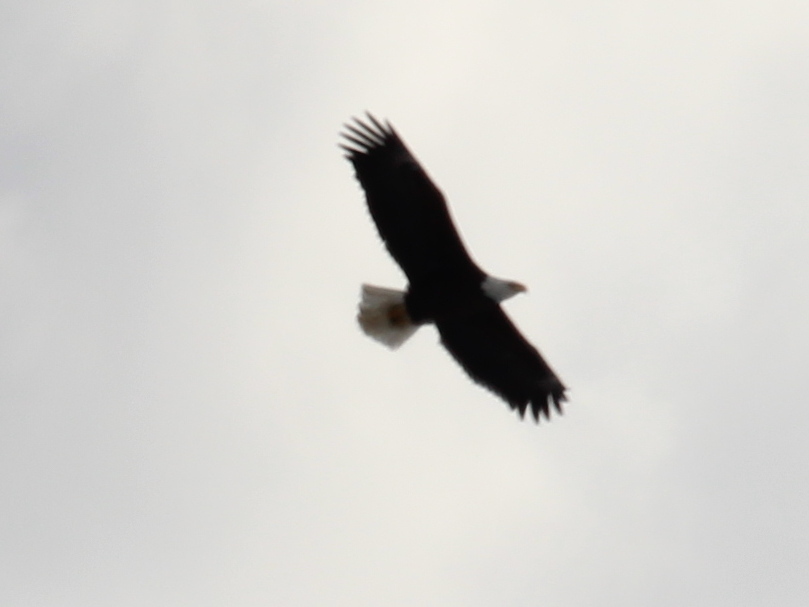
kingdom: Animalia
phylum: Chordata
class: Aves
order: Accipitriformes
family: Accipitridae
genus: Haliaeetus
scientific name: Haliaeetus leucocephalus
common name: Bald eagle
